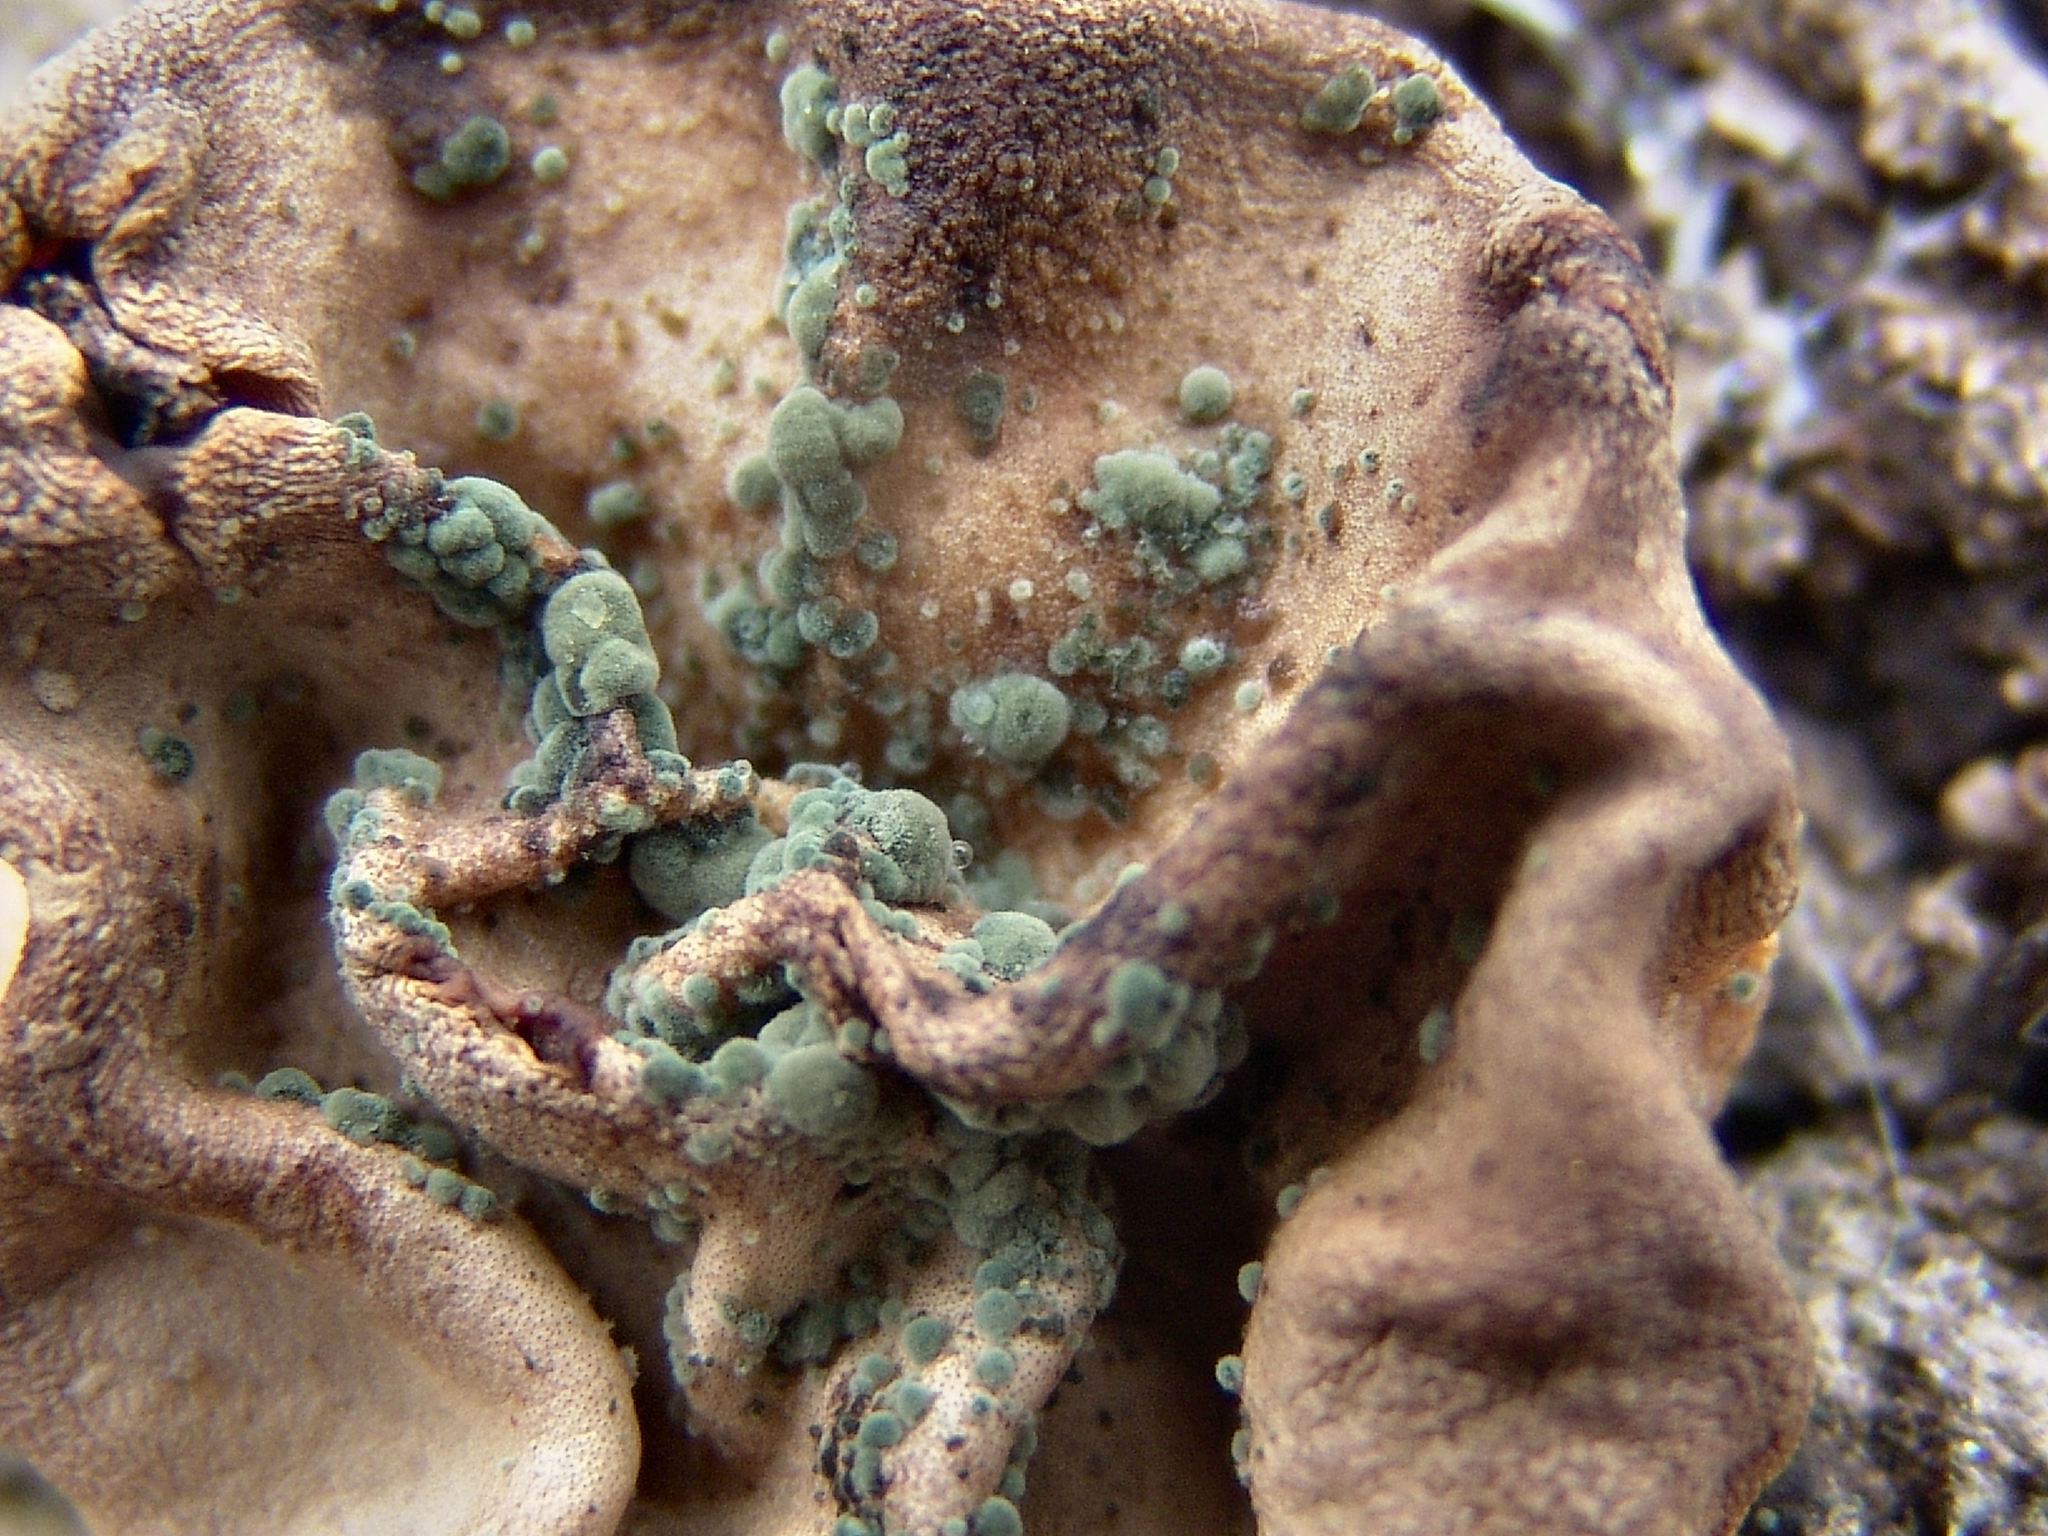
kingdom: Fungi
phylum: Ascomycota
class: Sordariomycetes
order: Hypocreales
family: Hypocreaceae
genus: Trichoderma
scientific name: Trichoderma peltatum
